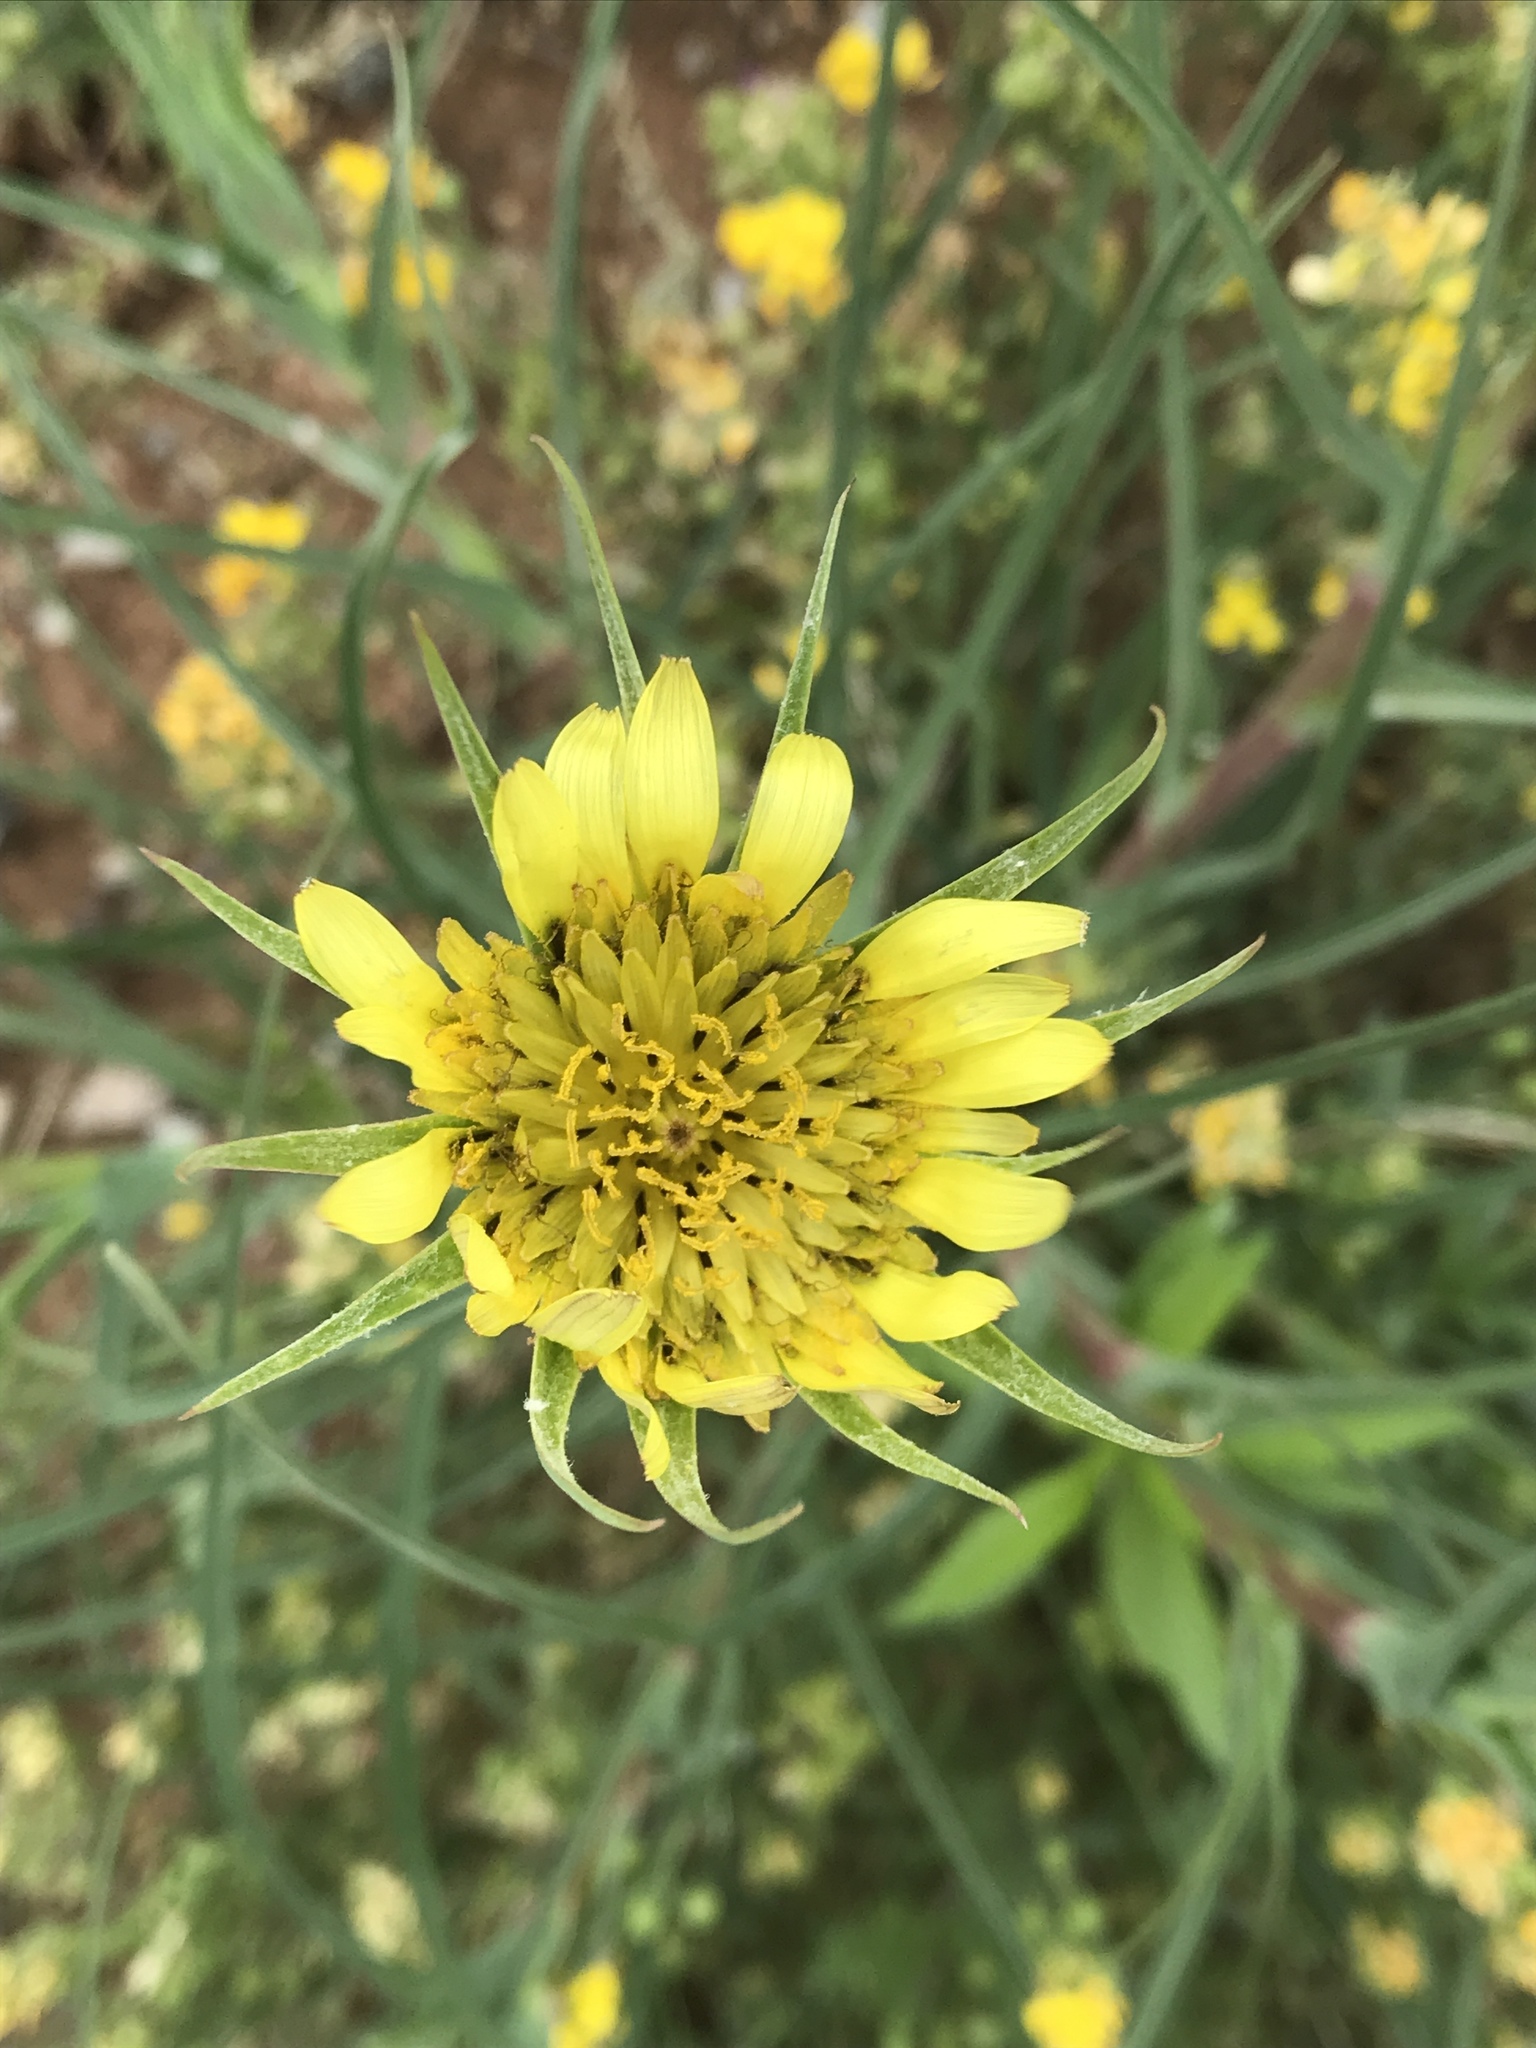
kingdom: Plantae
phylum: Tracheophyta
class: Magnoliopsida
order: Asterales
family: Asteraceae
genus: Tragopogon
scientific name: Tragopogon dubius
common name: Yellow salsify
